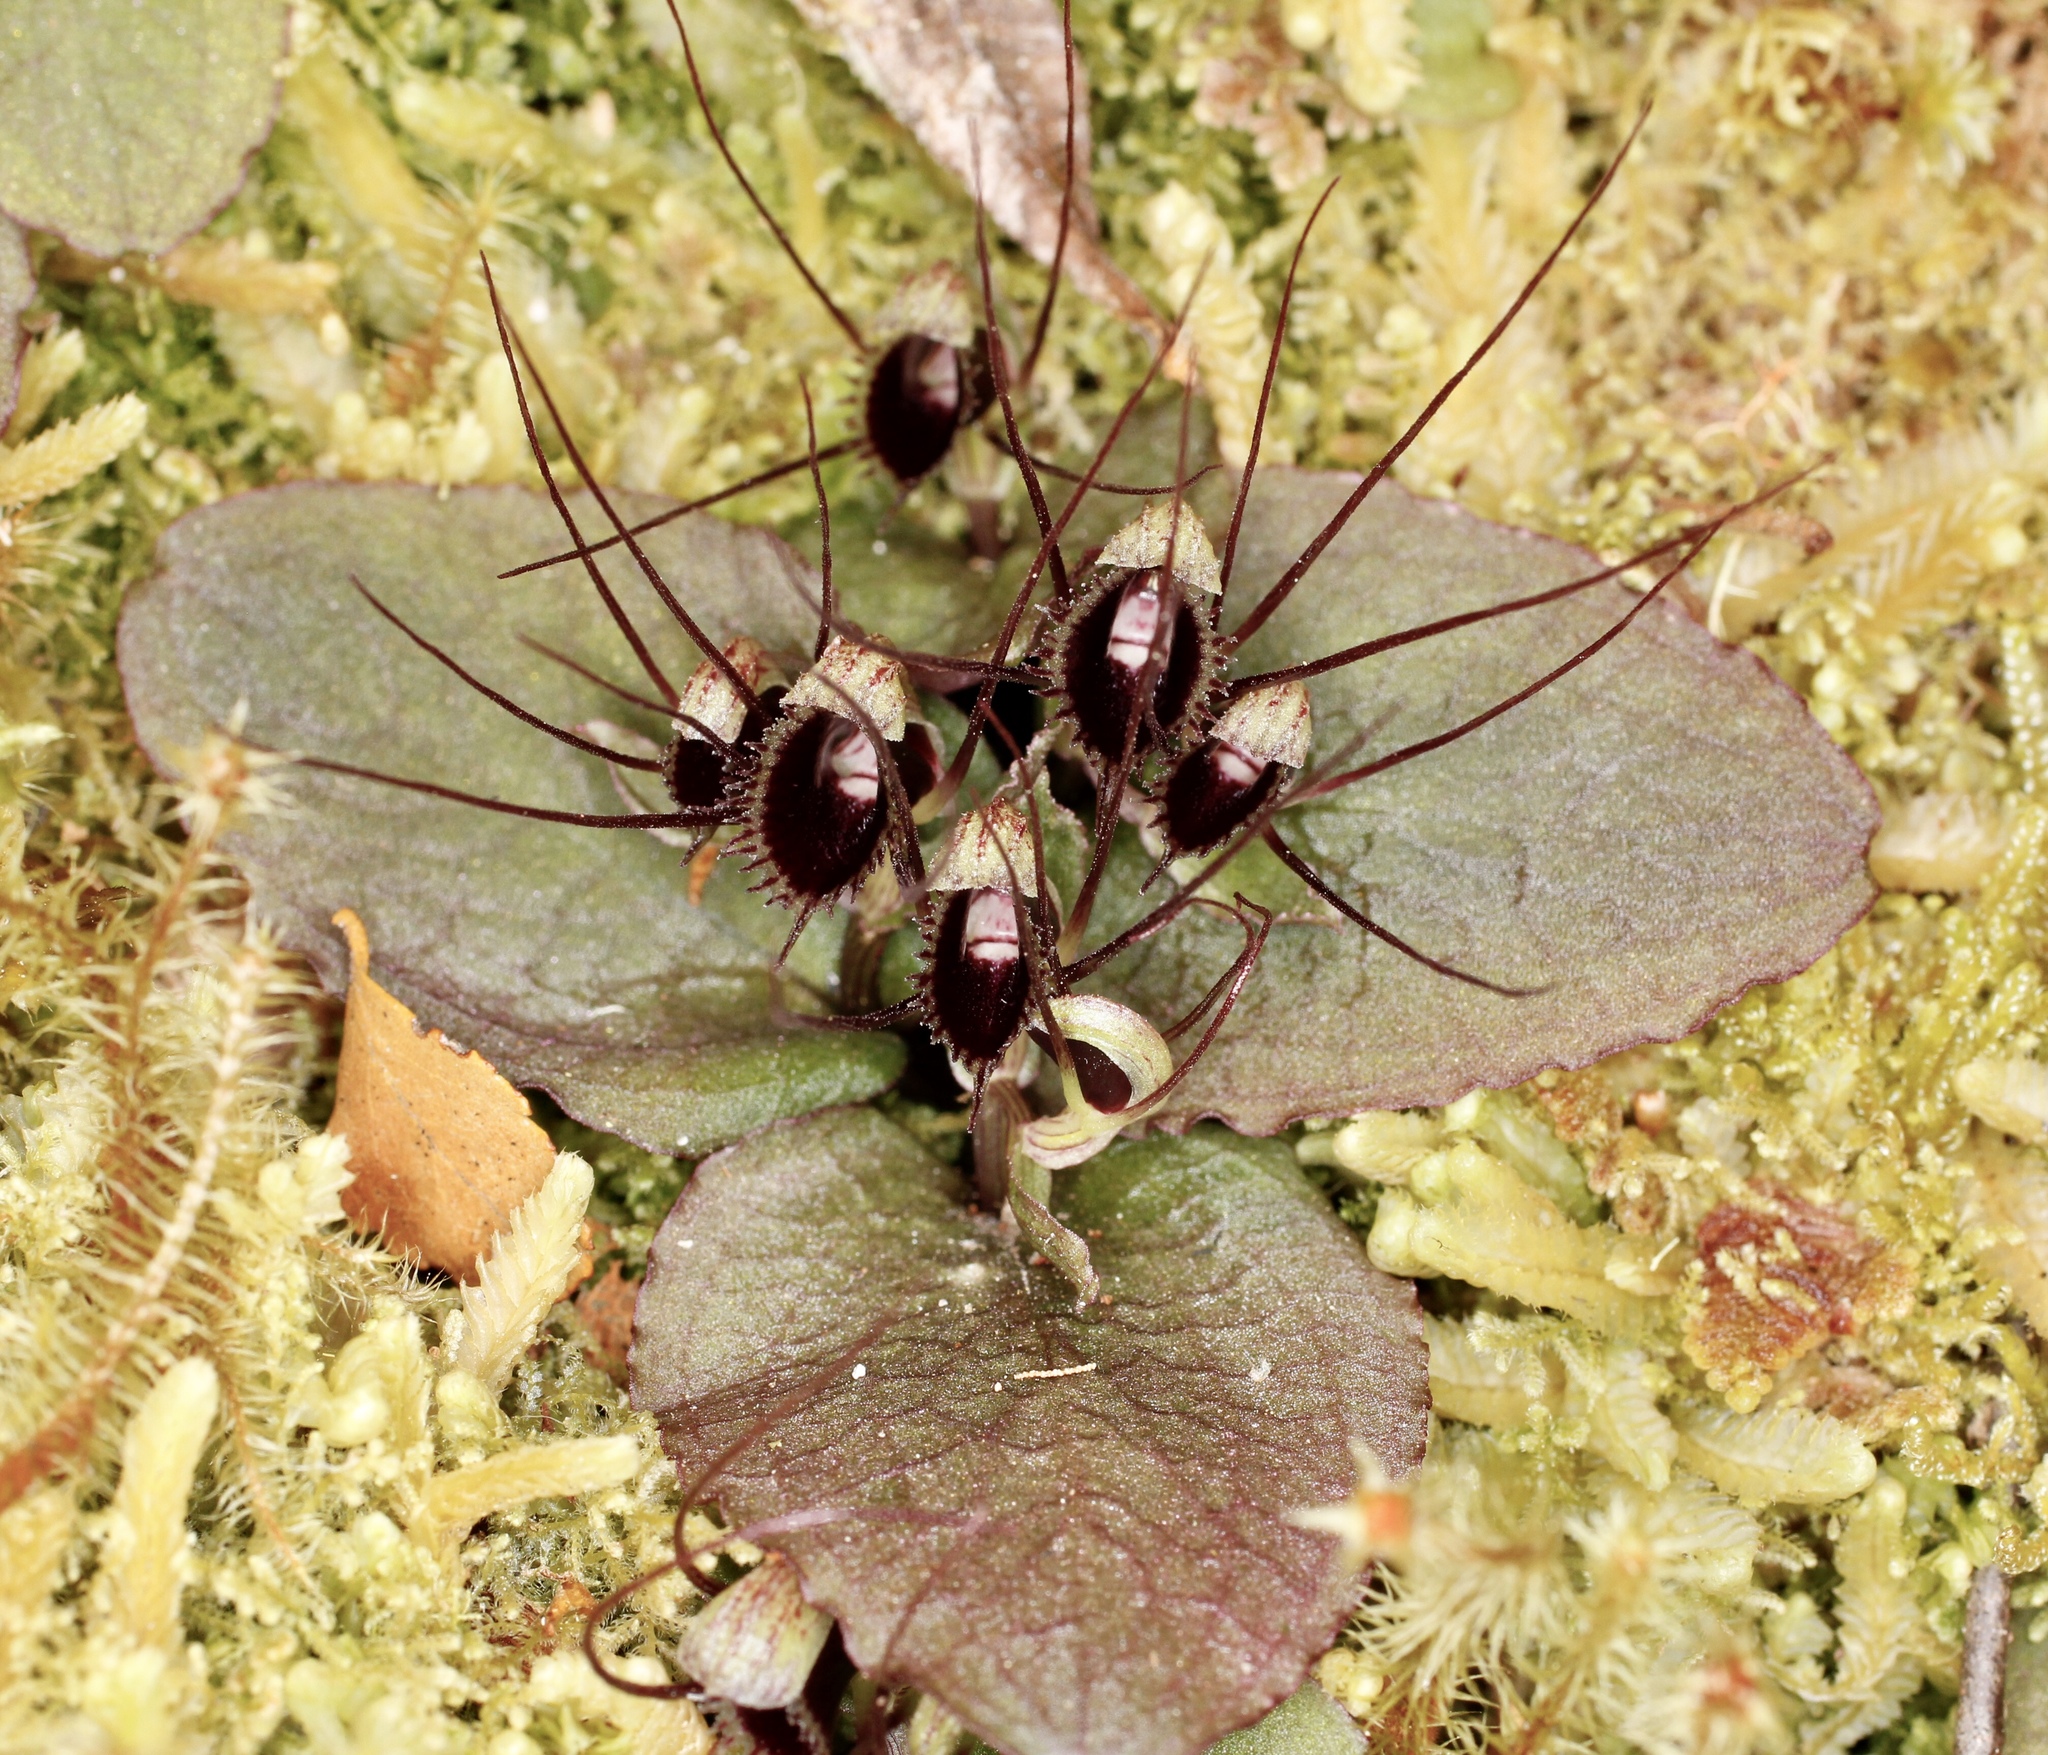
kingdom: Plantae
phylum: Tracheophyta
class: Liliopsida
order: Asparagales
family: Orchidaceae
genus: Corybas
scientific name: Corybas oblongus
